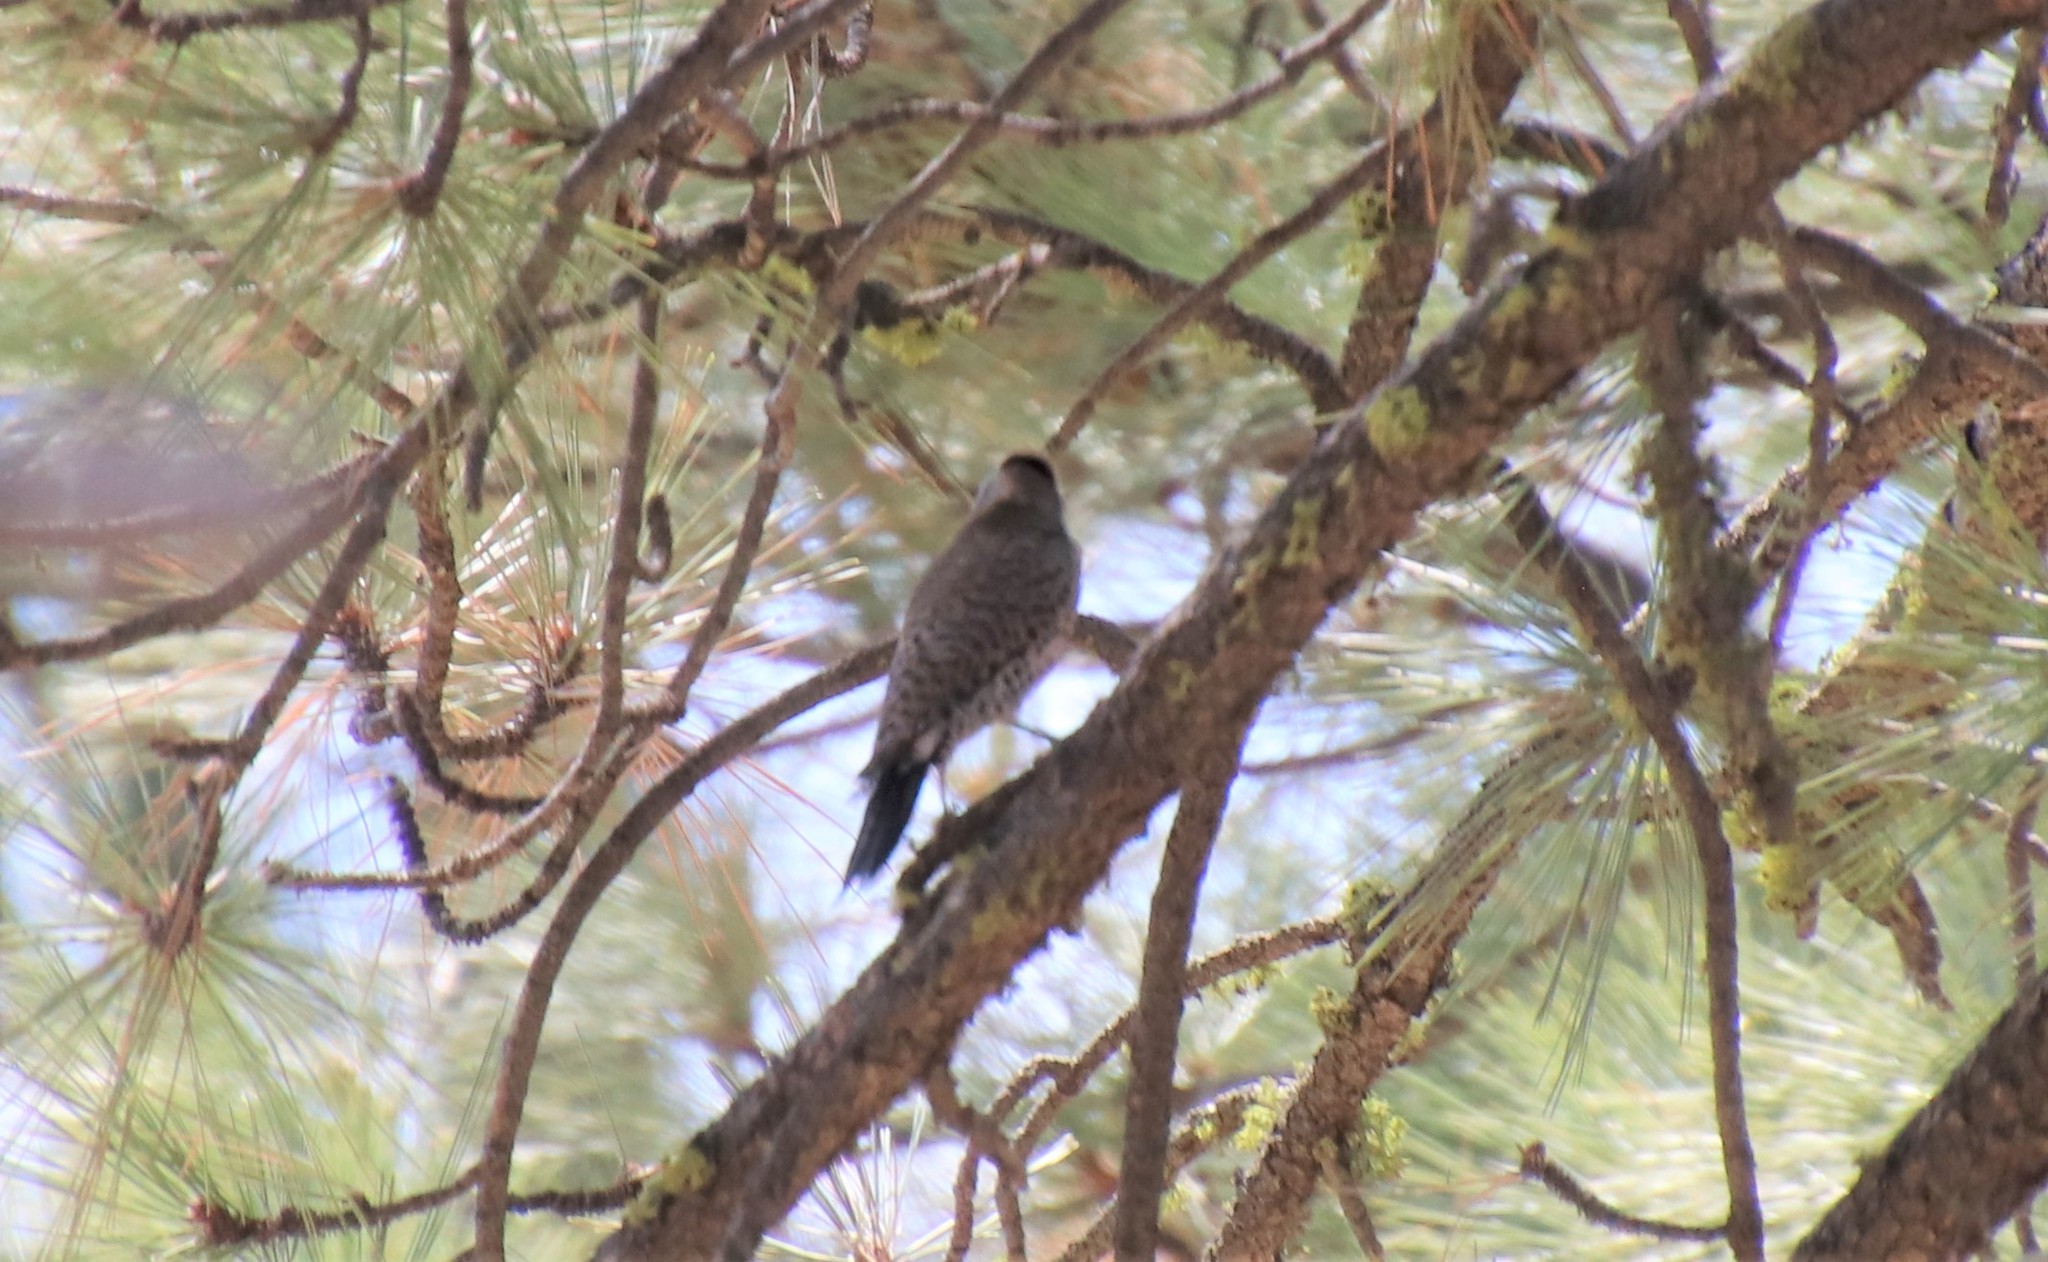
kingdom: Animalia
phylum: Chordata
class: Aves
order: Piciformes
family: Picidae
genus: Colaptes
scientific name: Colaptes auratus
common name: Northern flicker
